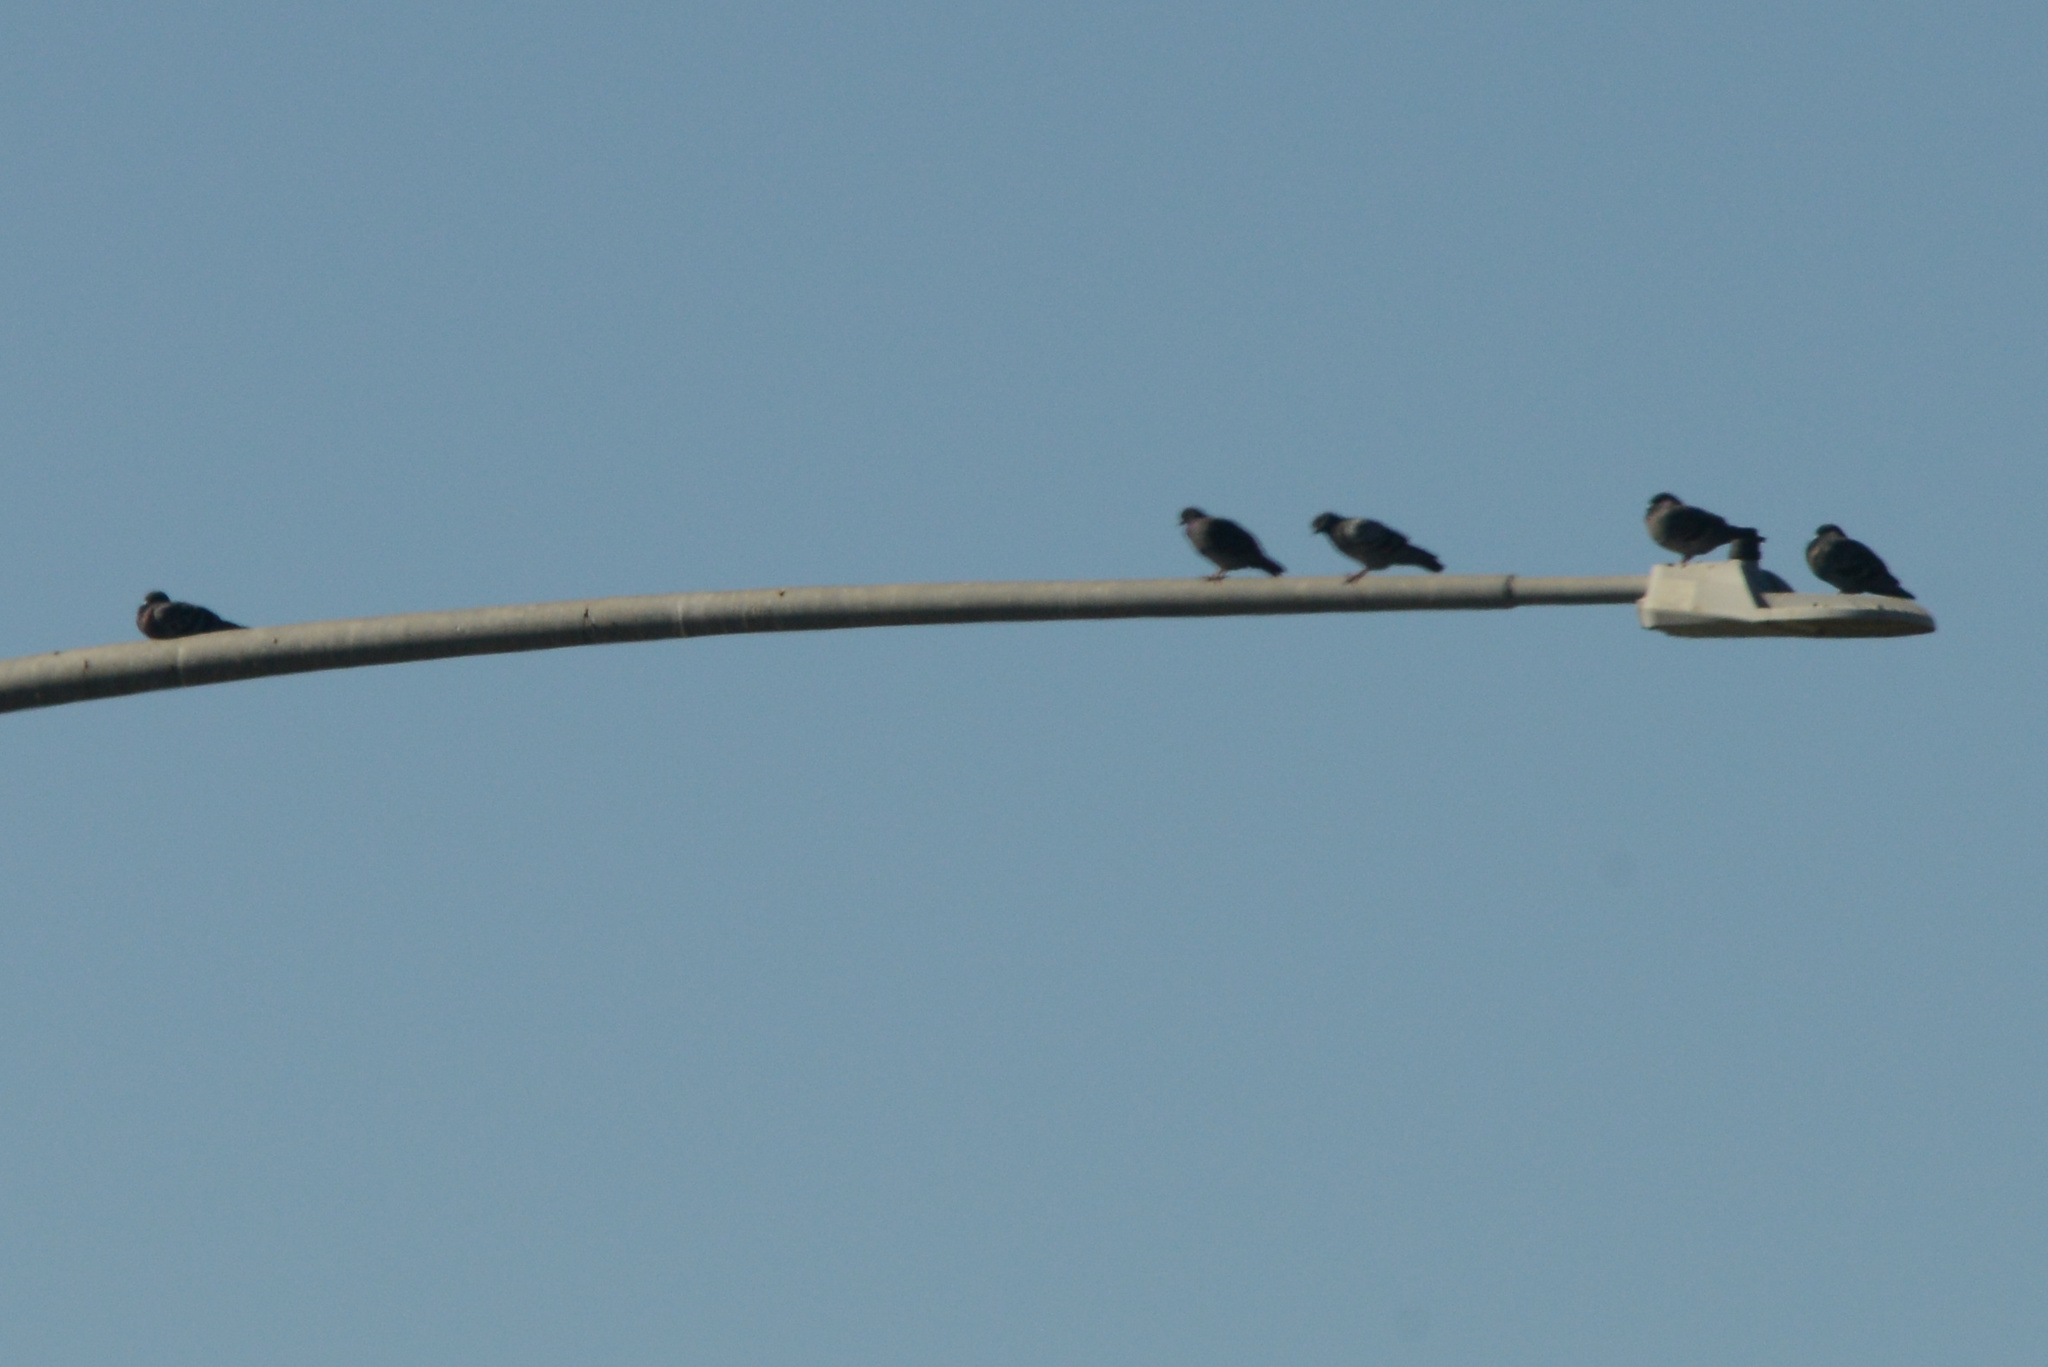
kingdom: Animalia
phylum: Chordata
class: Aves
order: Columbiformes
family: Columbidae
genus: Columba
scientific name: Columba livia
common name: Rock pigeon
